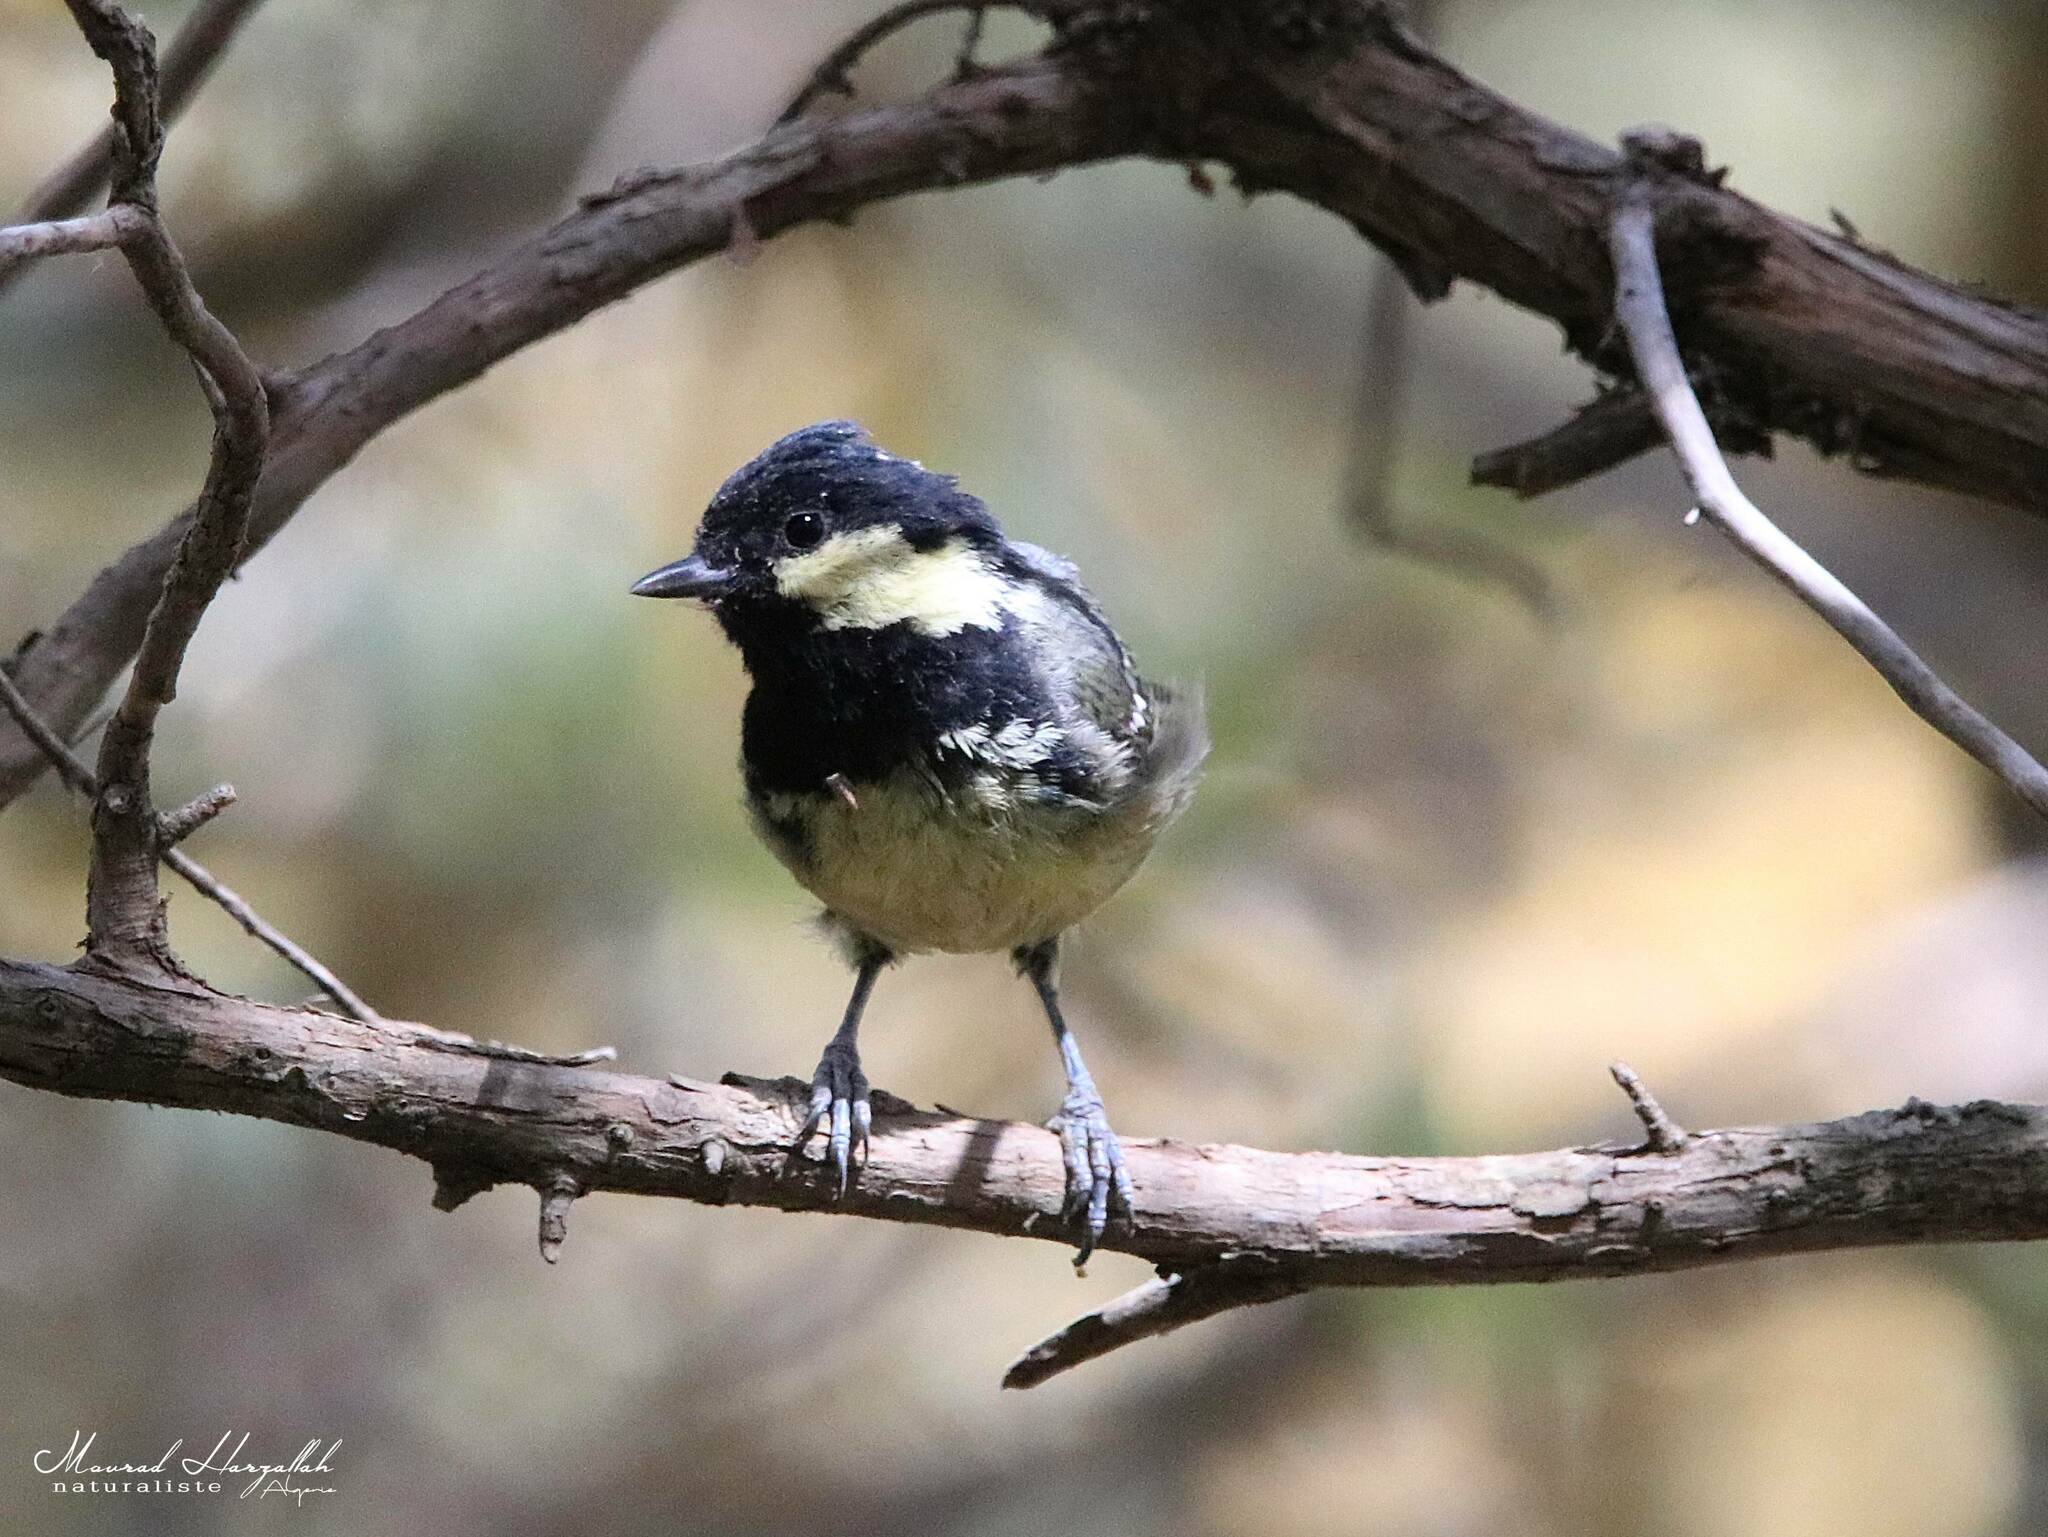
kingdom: Animalia
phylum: Chordata
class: Aves
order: Passeriformes
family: Paridae
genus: Periparus
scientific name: Periparus ater
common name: Coal tit
